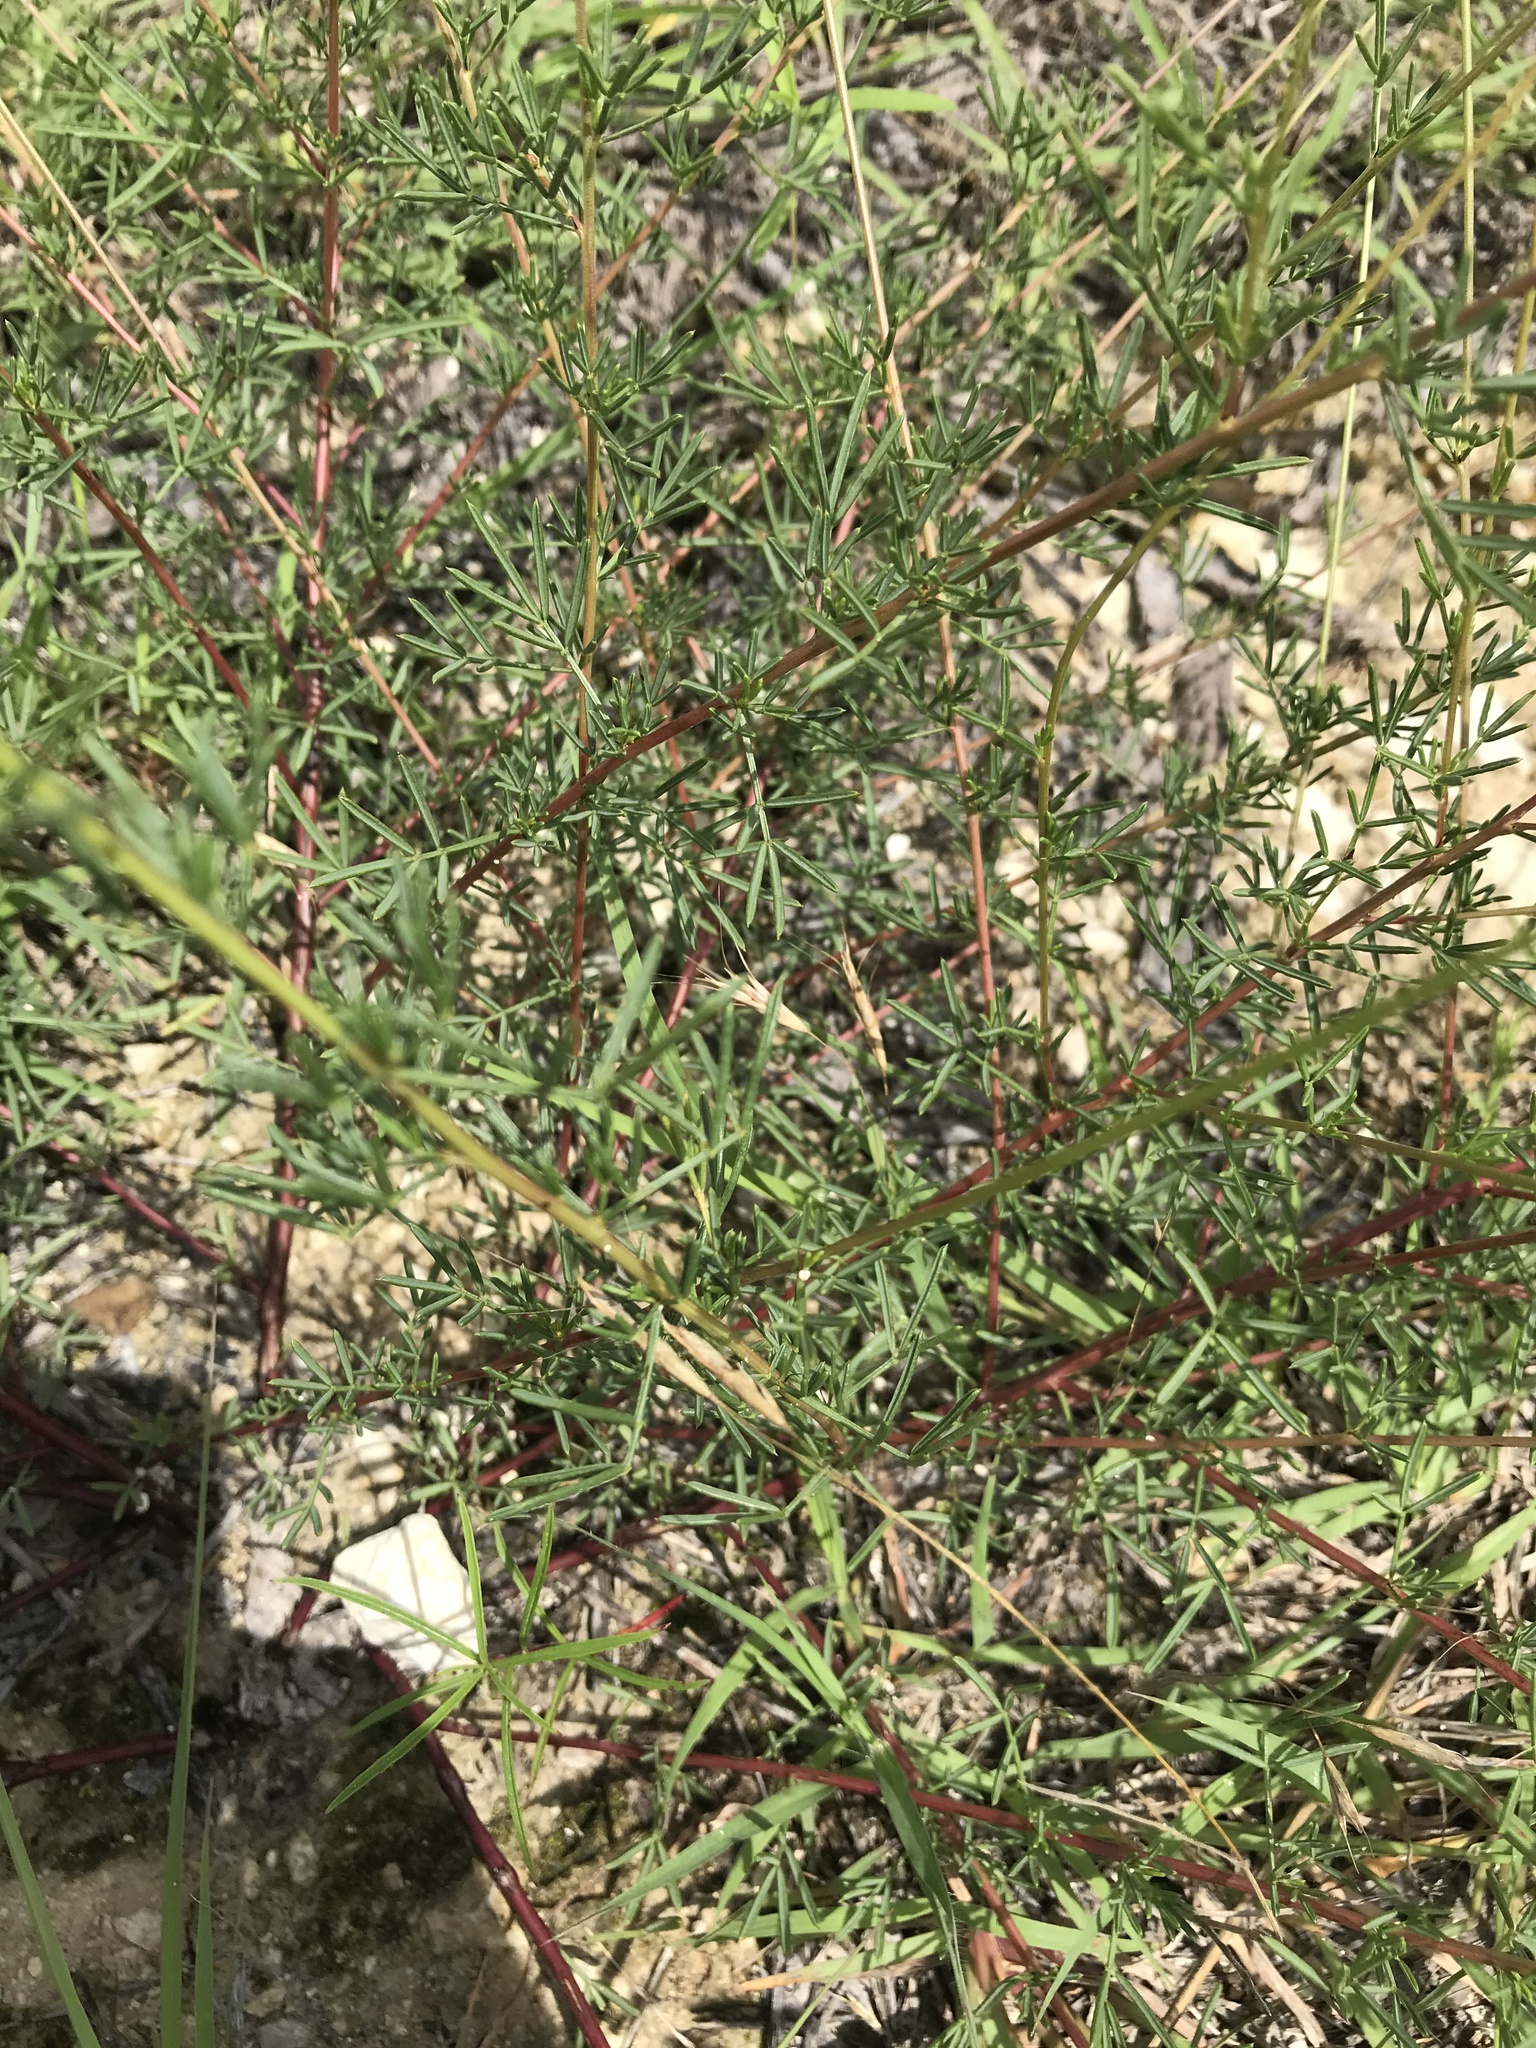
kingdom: Plantae
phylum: Tracheophyta
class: Magnoliopsida
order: Fabales
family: Fabaceae
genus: Dalea
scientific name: Dalea tenuis
